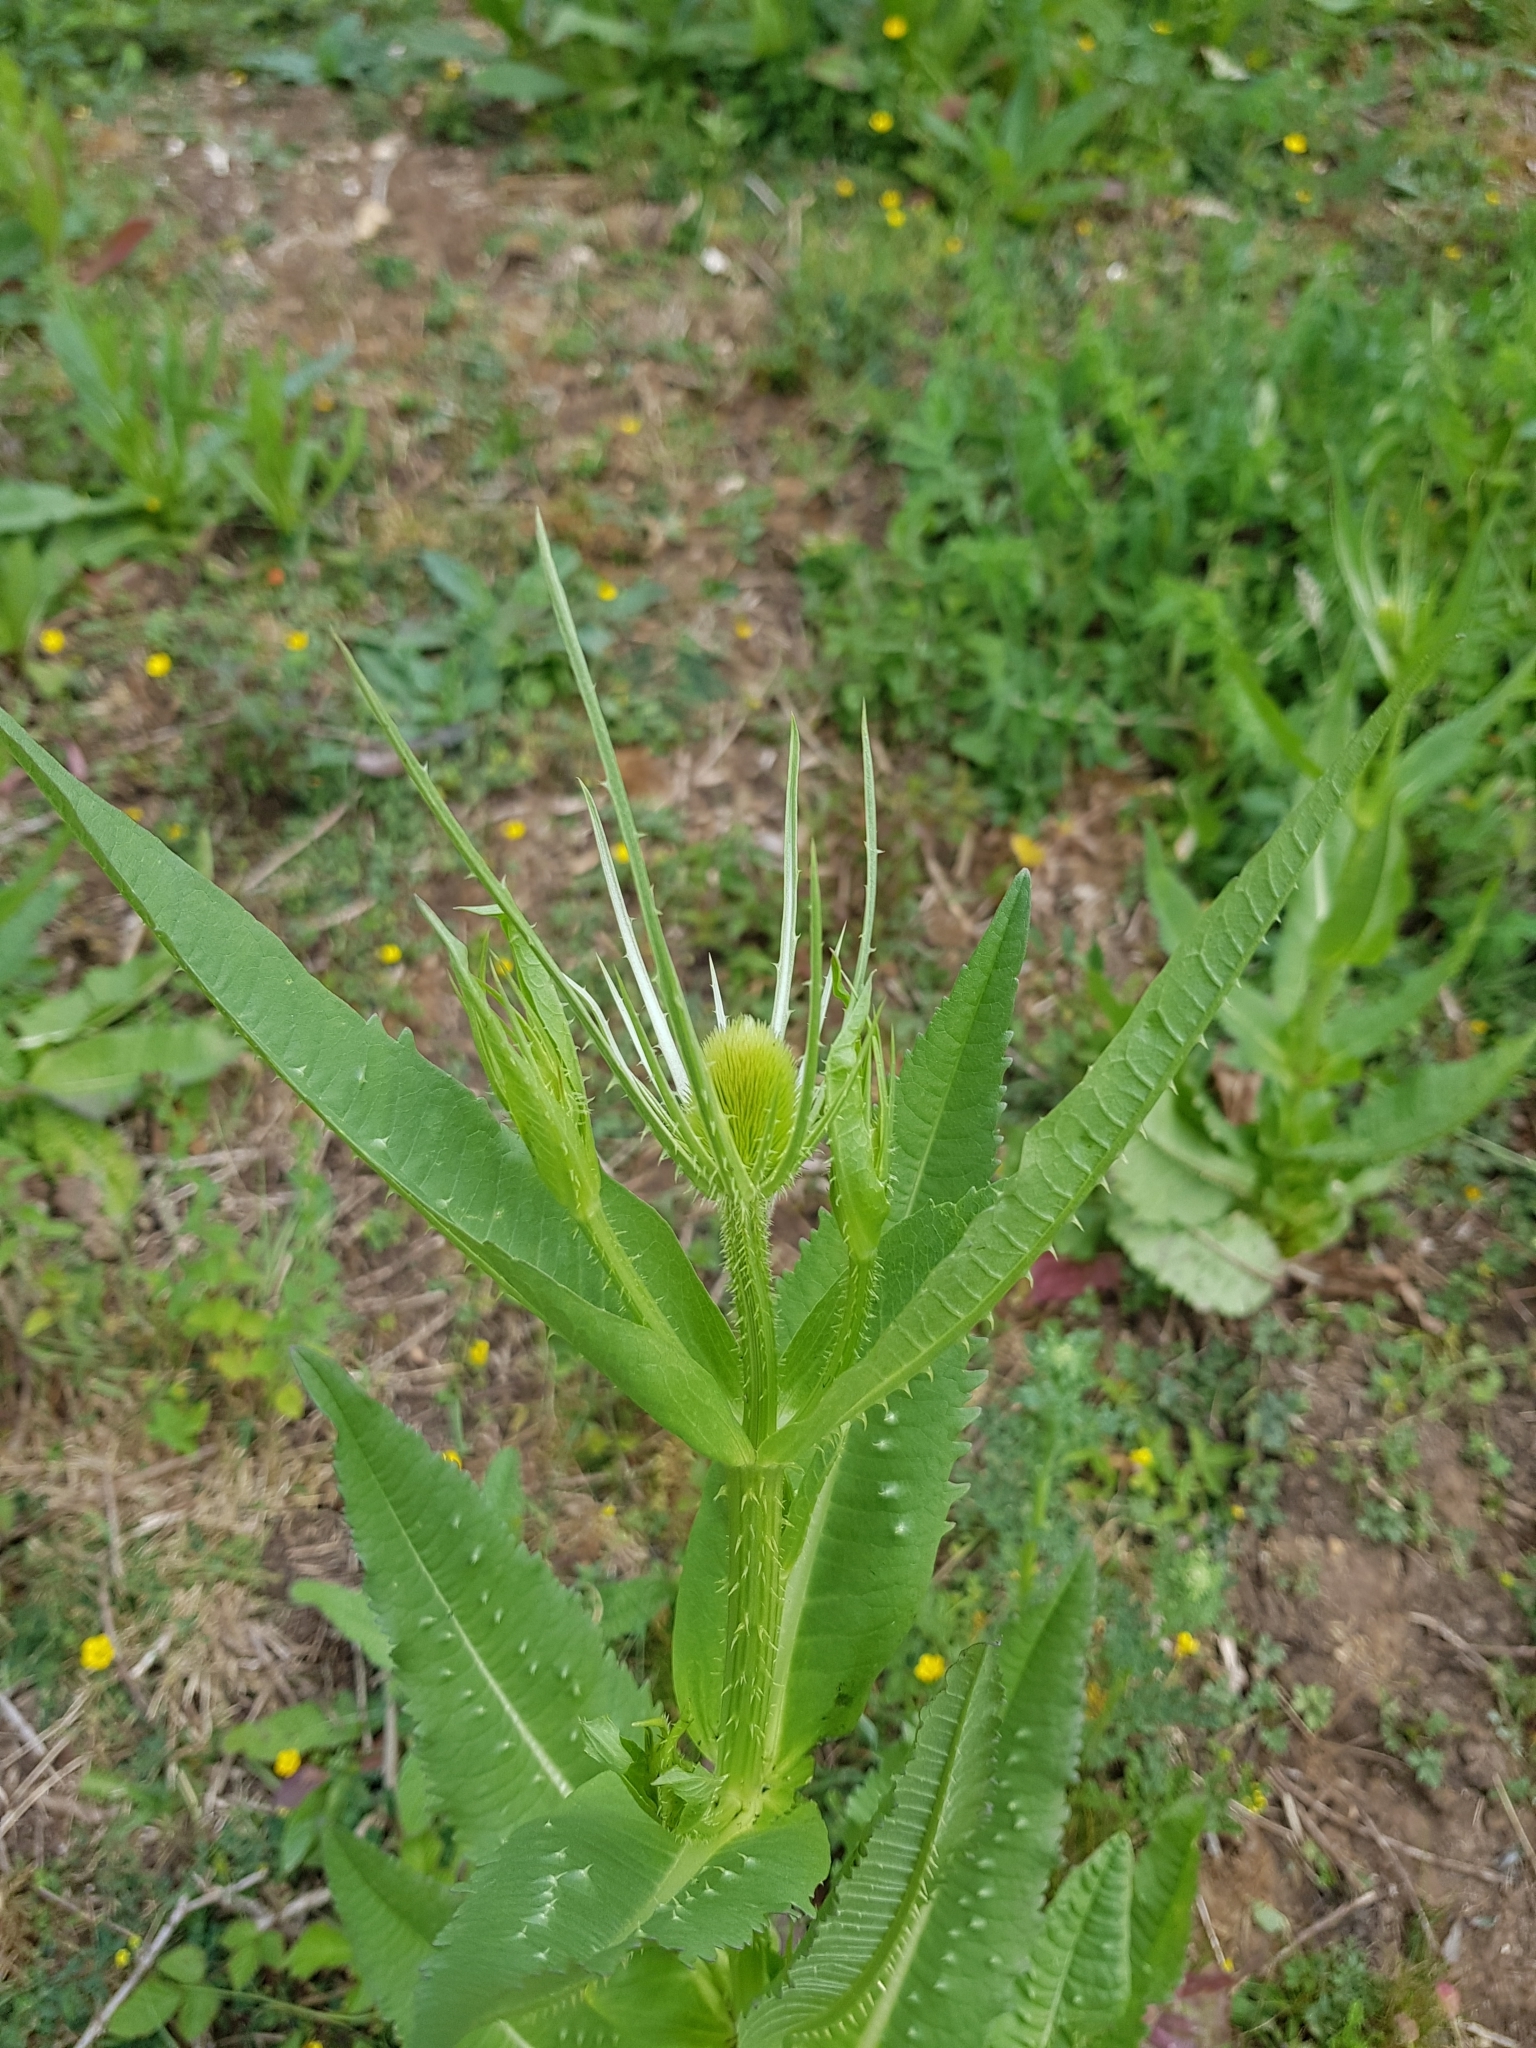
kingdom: Plantae
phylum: Tracheophyta
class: Magnoliopsida
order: Dipsacales
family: Caprifoliaceae
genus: Dipsacus
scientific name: Dipsacus fullonum
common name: Teasel
